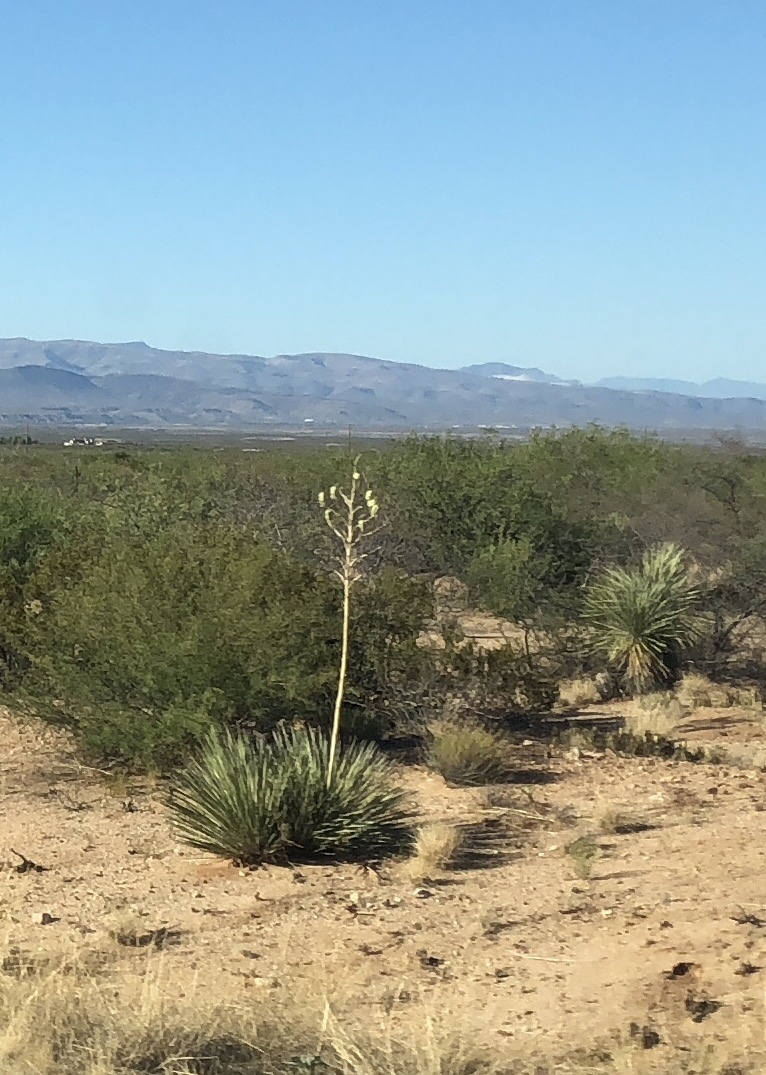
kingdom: Plantae
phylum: Tracheophyta
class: Liliopsida
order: Asparagales
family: Asparagaceae
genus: Yucca
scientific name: Yucca elata
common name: Palmella
